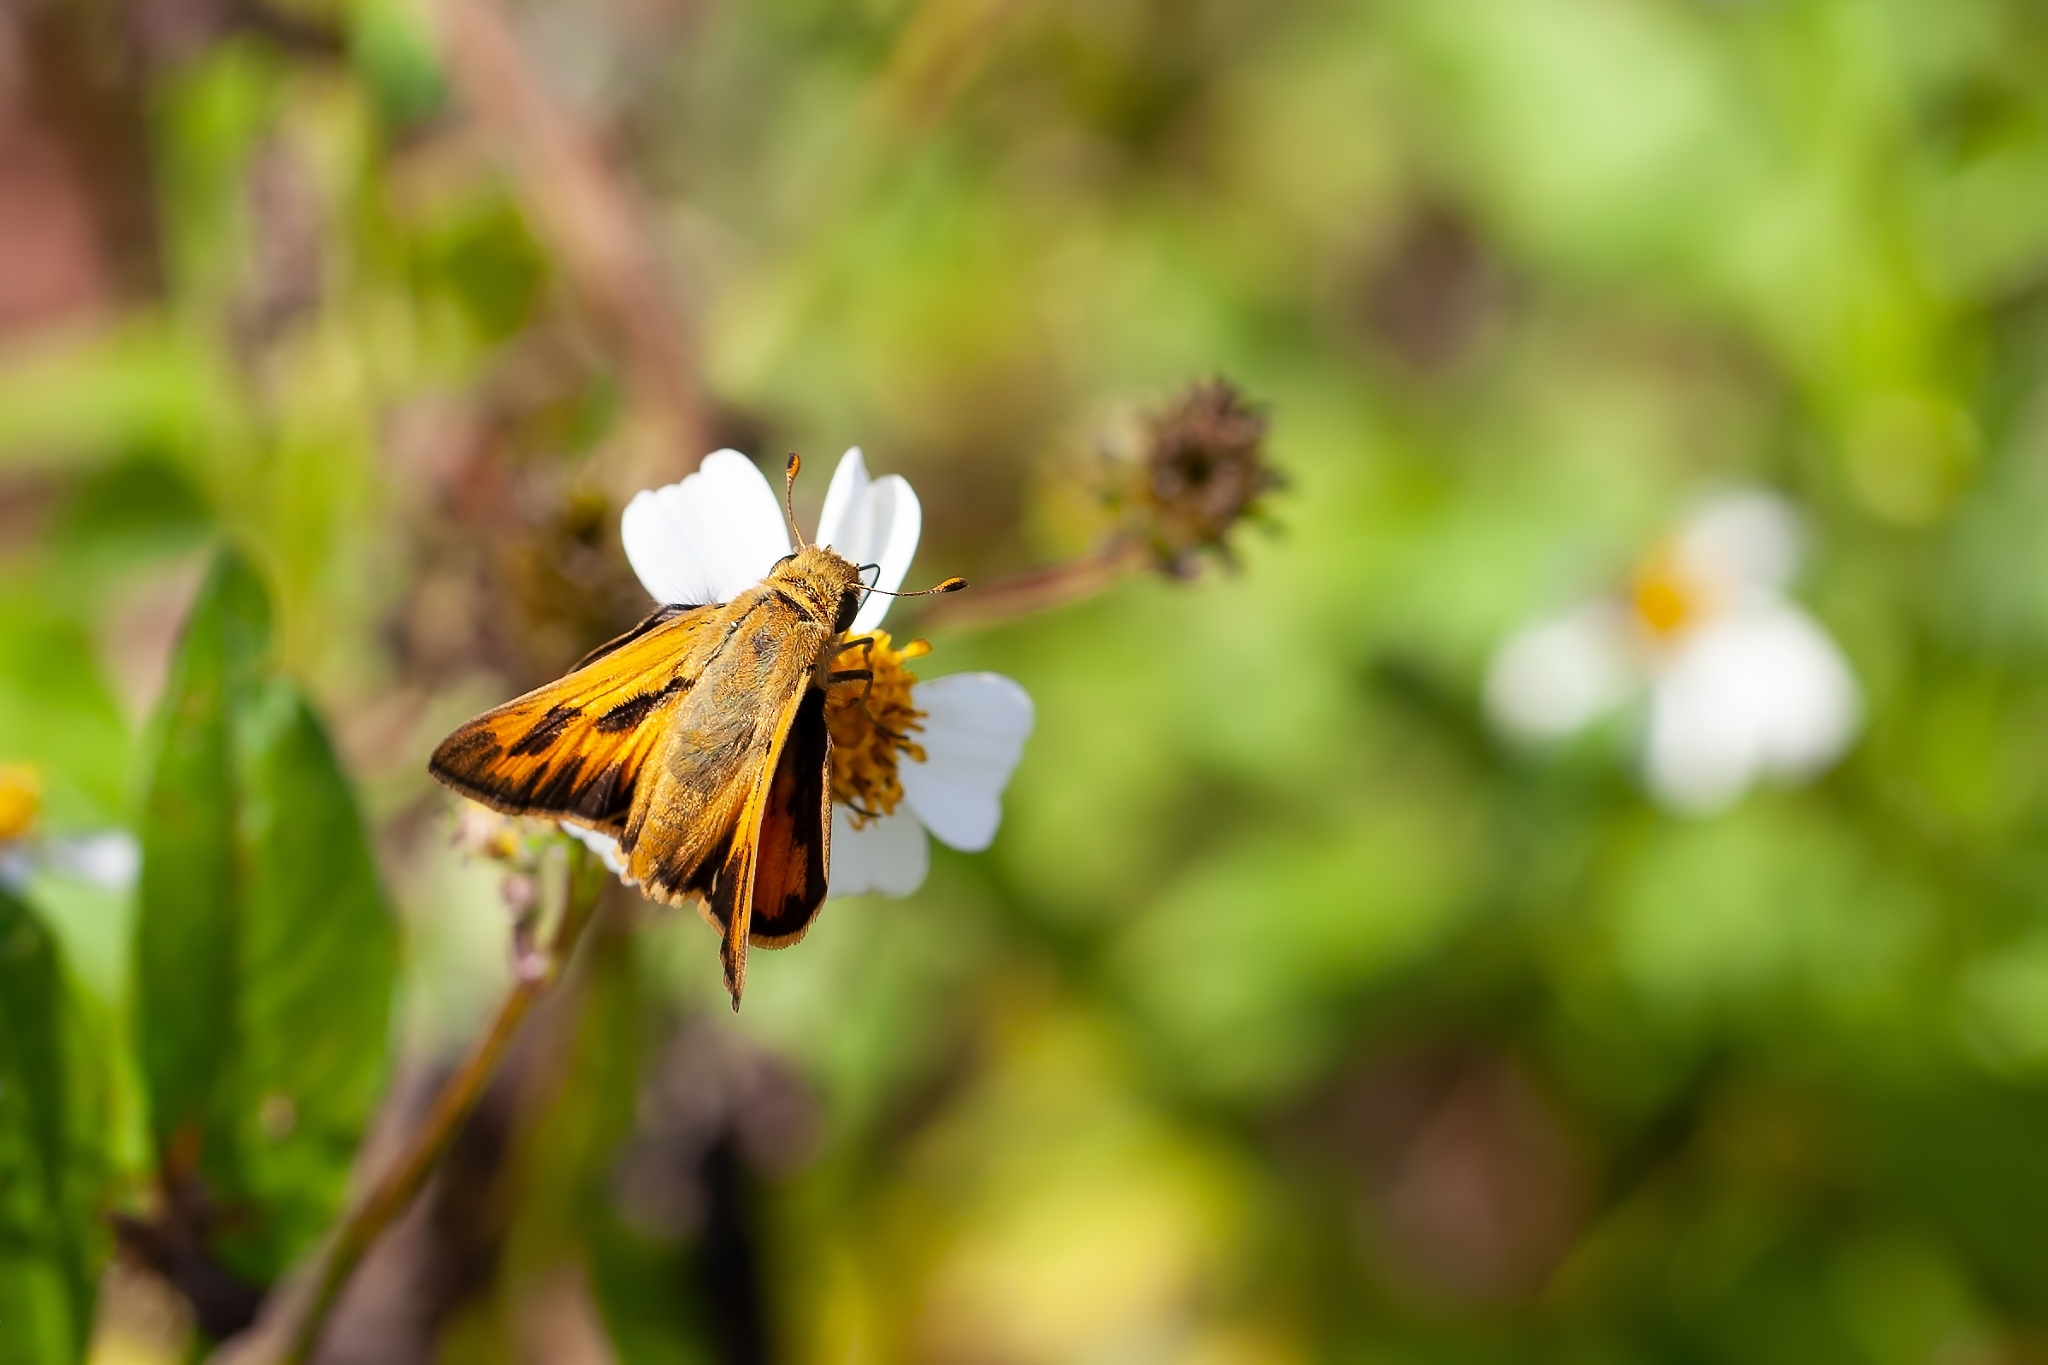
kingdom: Animalia
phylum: Arthropoda
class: Insecta
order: Lepidoptera
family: Hesperiidae
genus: Hylephila
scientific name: Hylephila phyleus
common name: Fiery skipper
